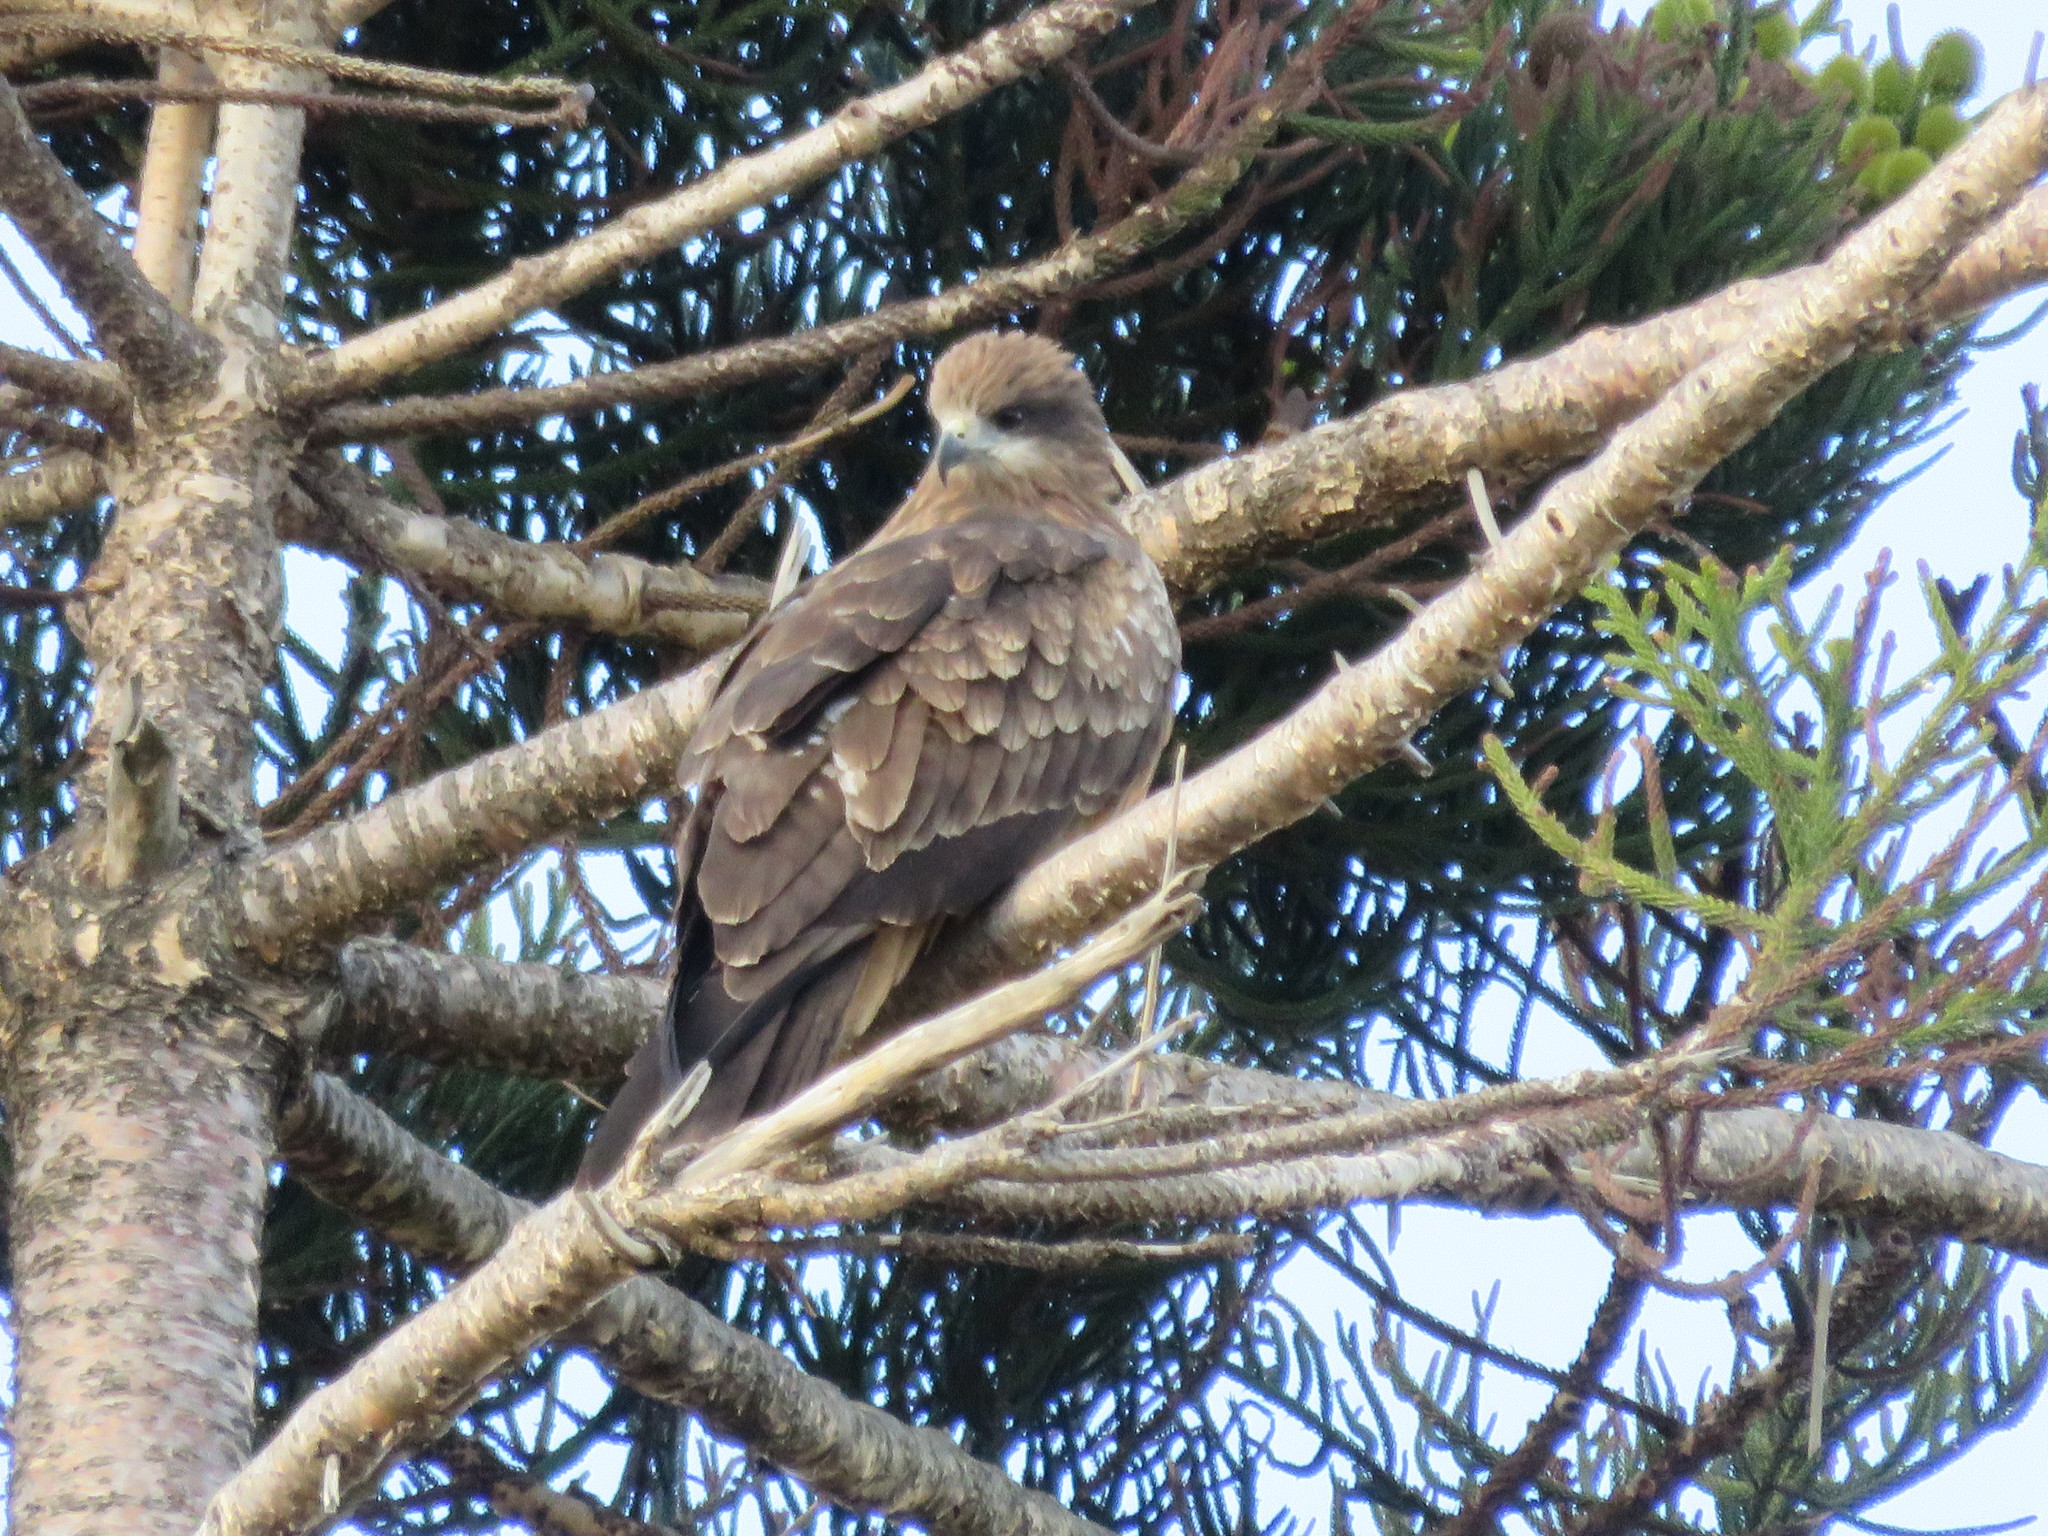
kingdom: Animalia
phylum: Chordata
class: Aves
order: Accipitriformes
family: Accipitridae
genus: Milvus
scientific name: Milvus migrans
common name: Black kite
